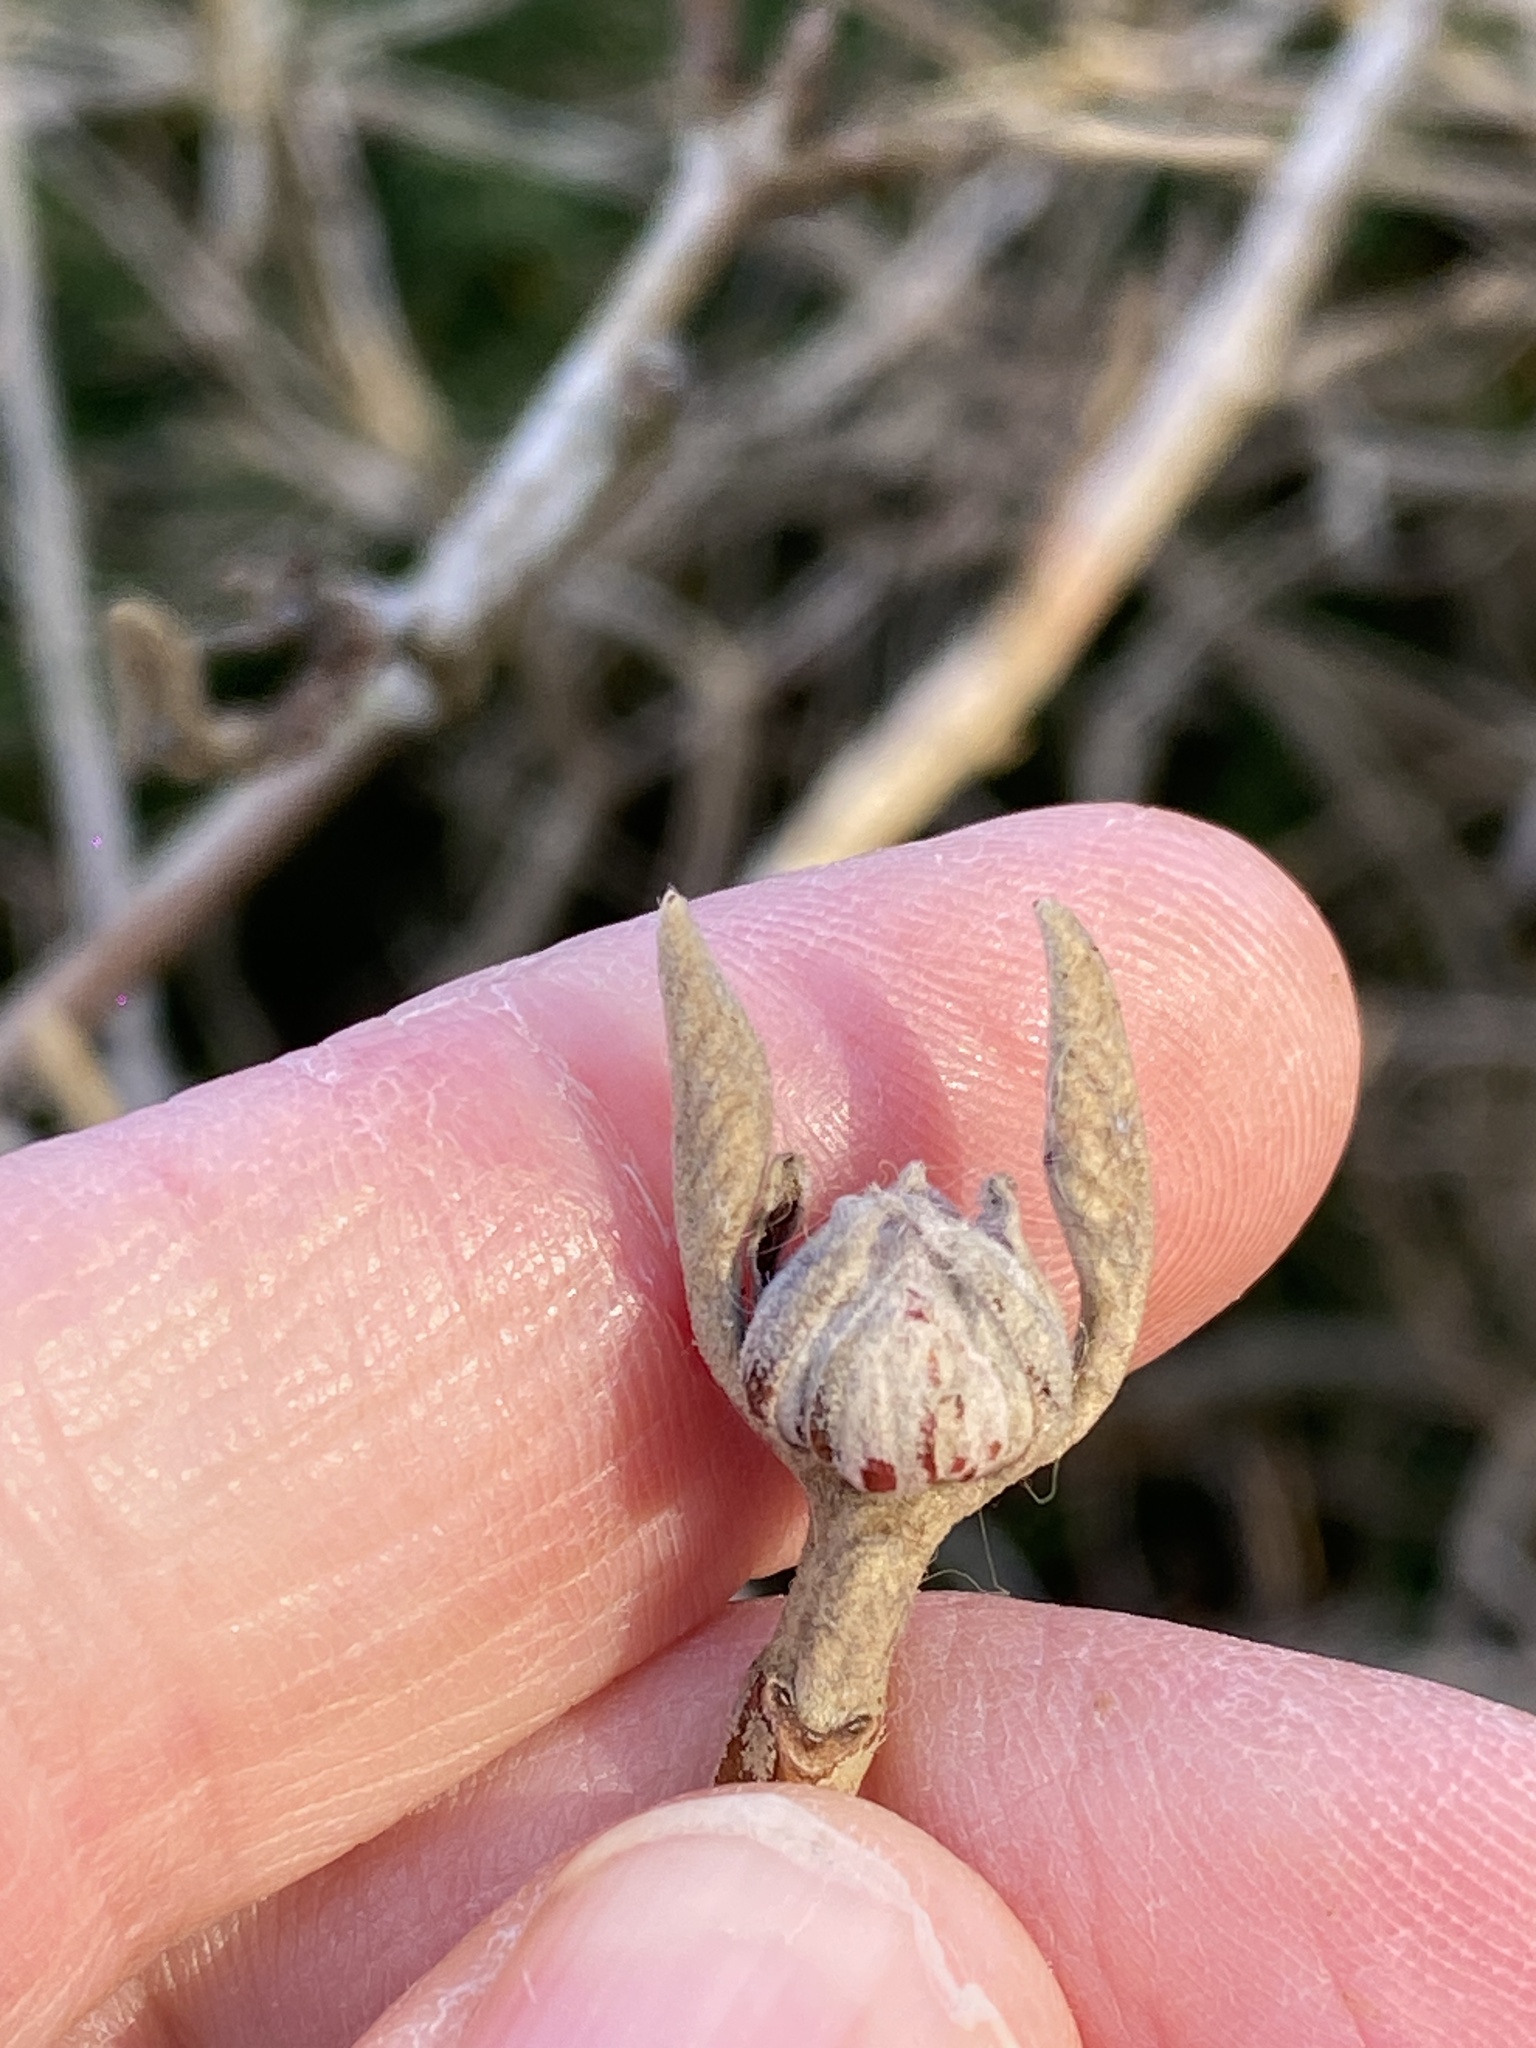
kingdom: Plantae
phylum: Tracheophyta
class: Magnoliopsida
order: Dipsacales
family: Viburnaceae
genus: Viburnum
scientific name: Viburnum lantana
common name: Wayfaring tree
